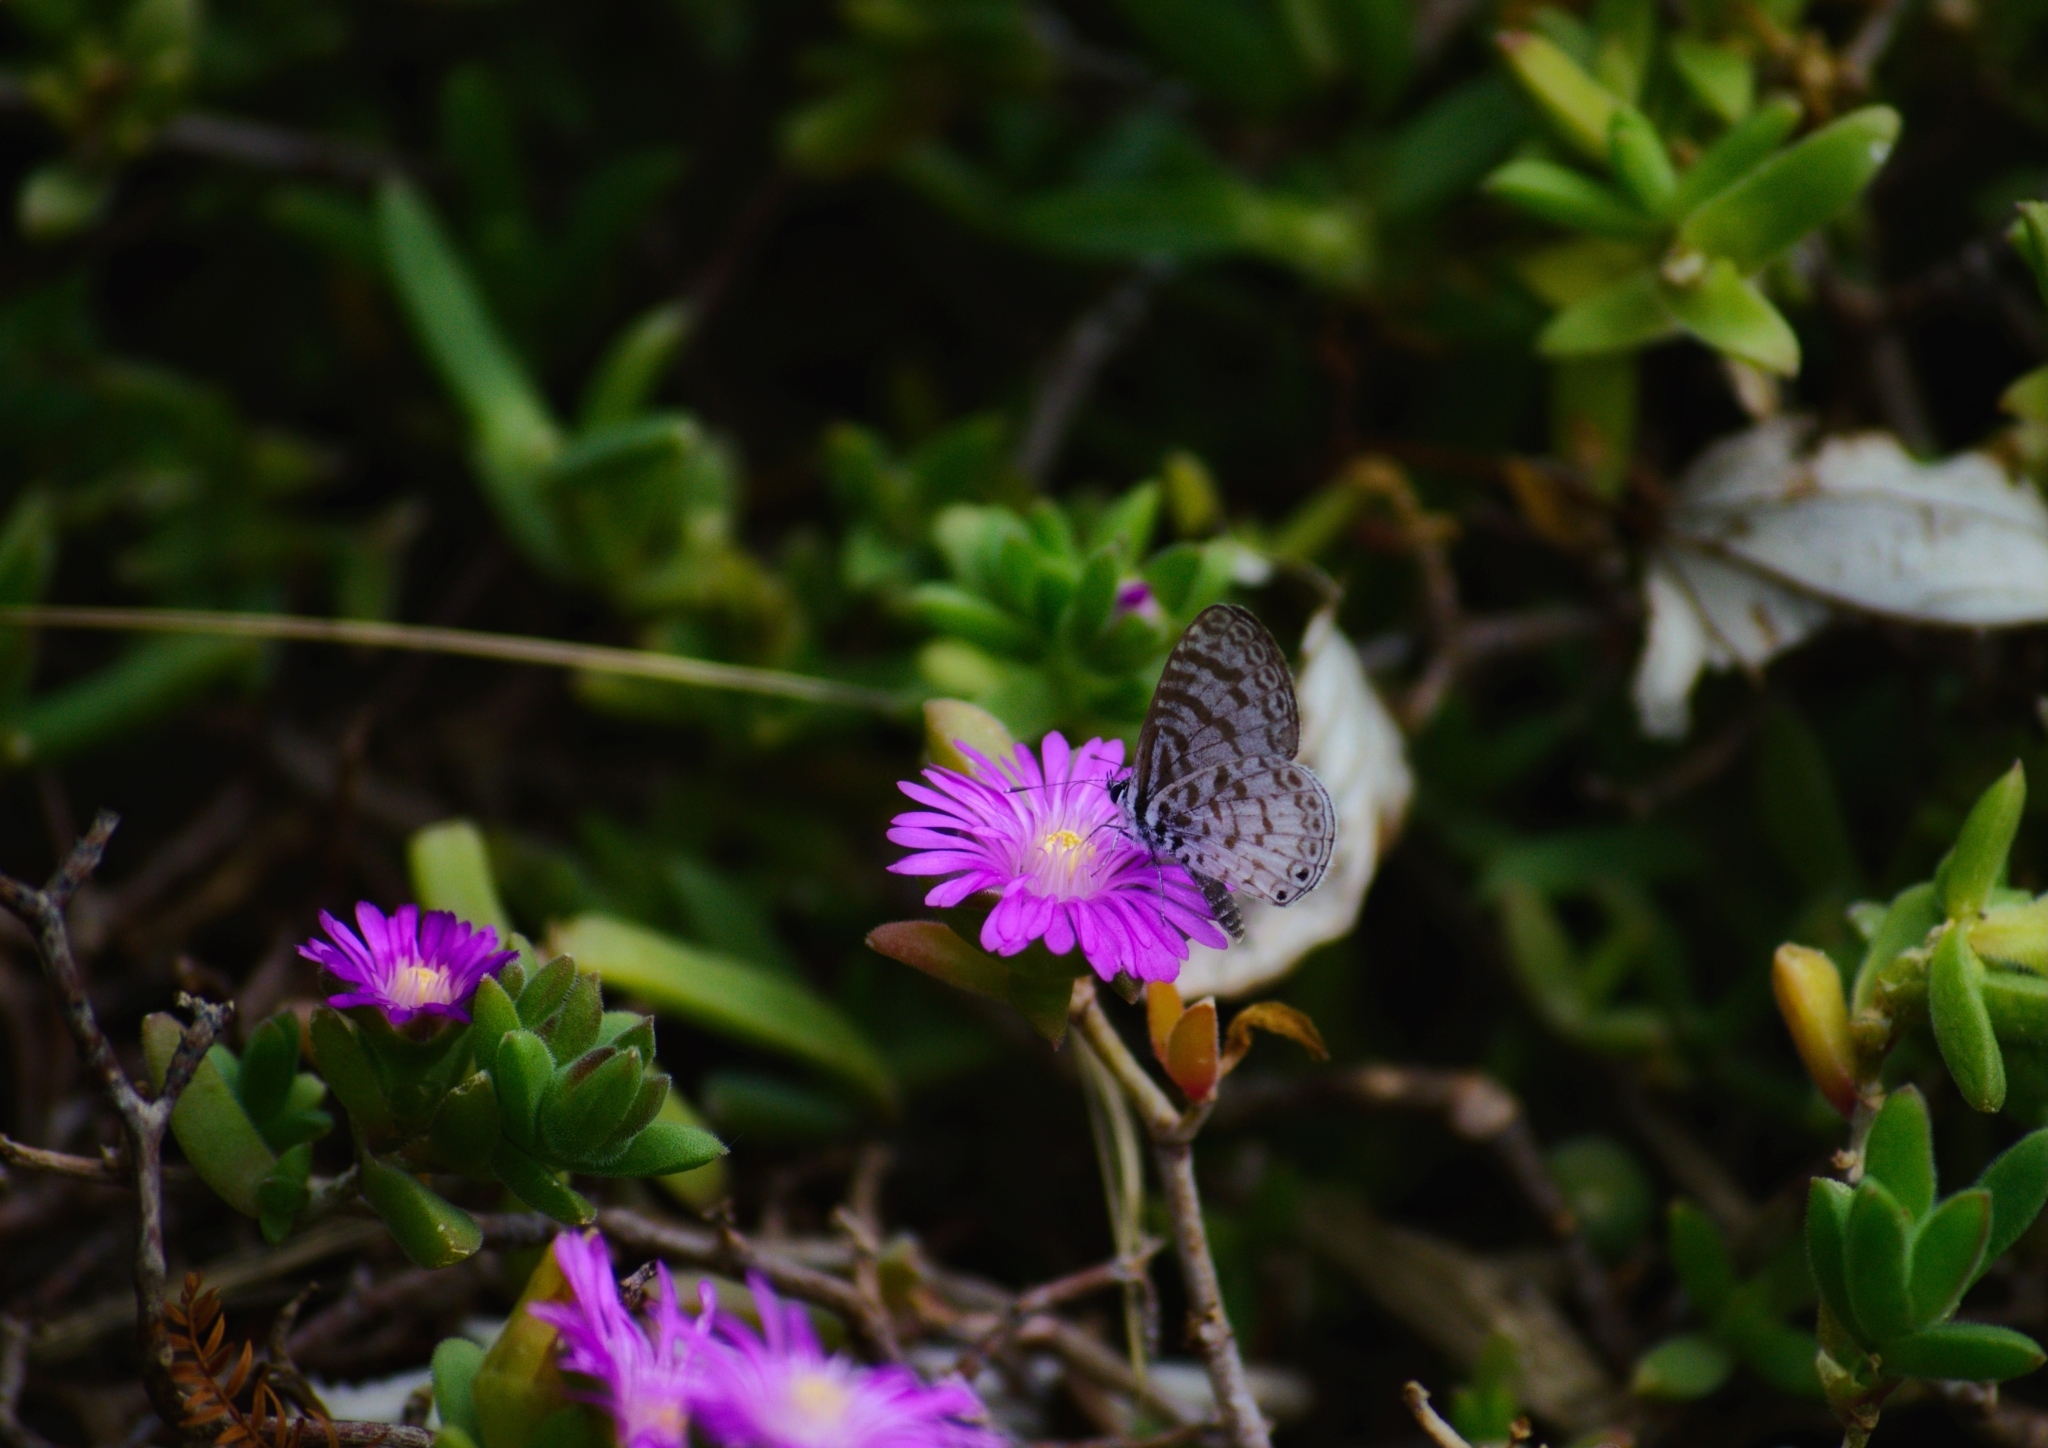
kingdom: Animalia
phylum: Arthropoda
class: Insecta
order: Lepidoptera
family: Lycaenidae
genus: Leptotes
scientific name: Leptotes cassius
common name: Cassius blue
